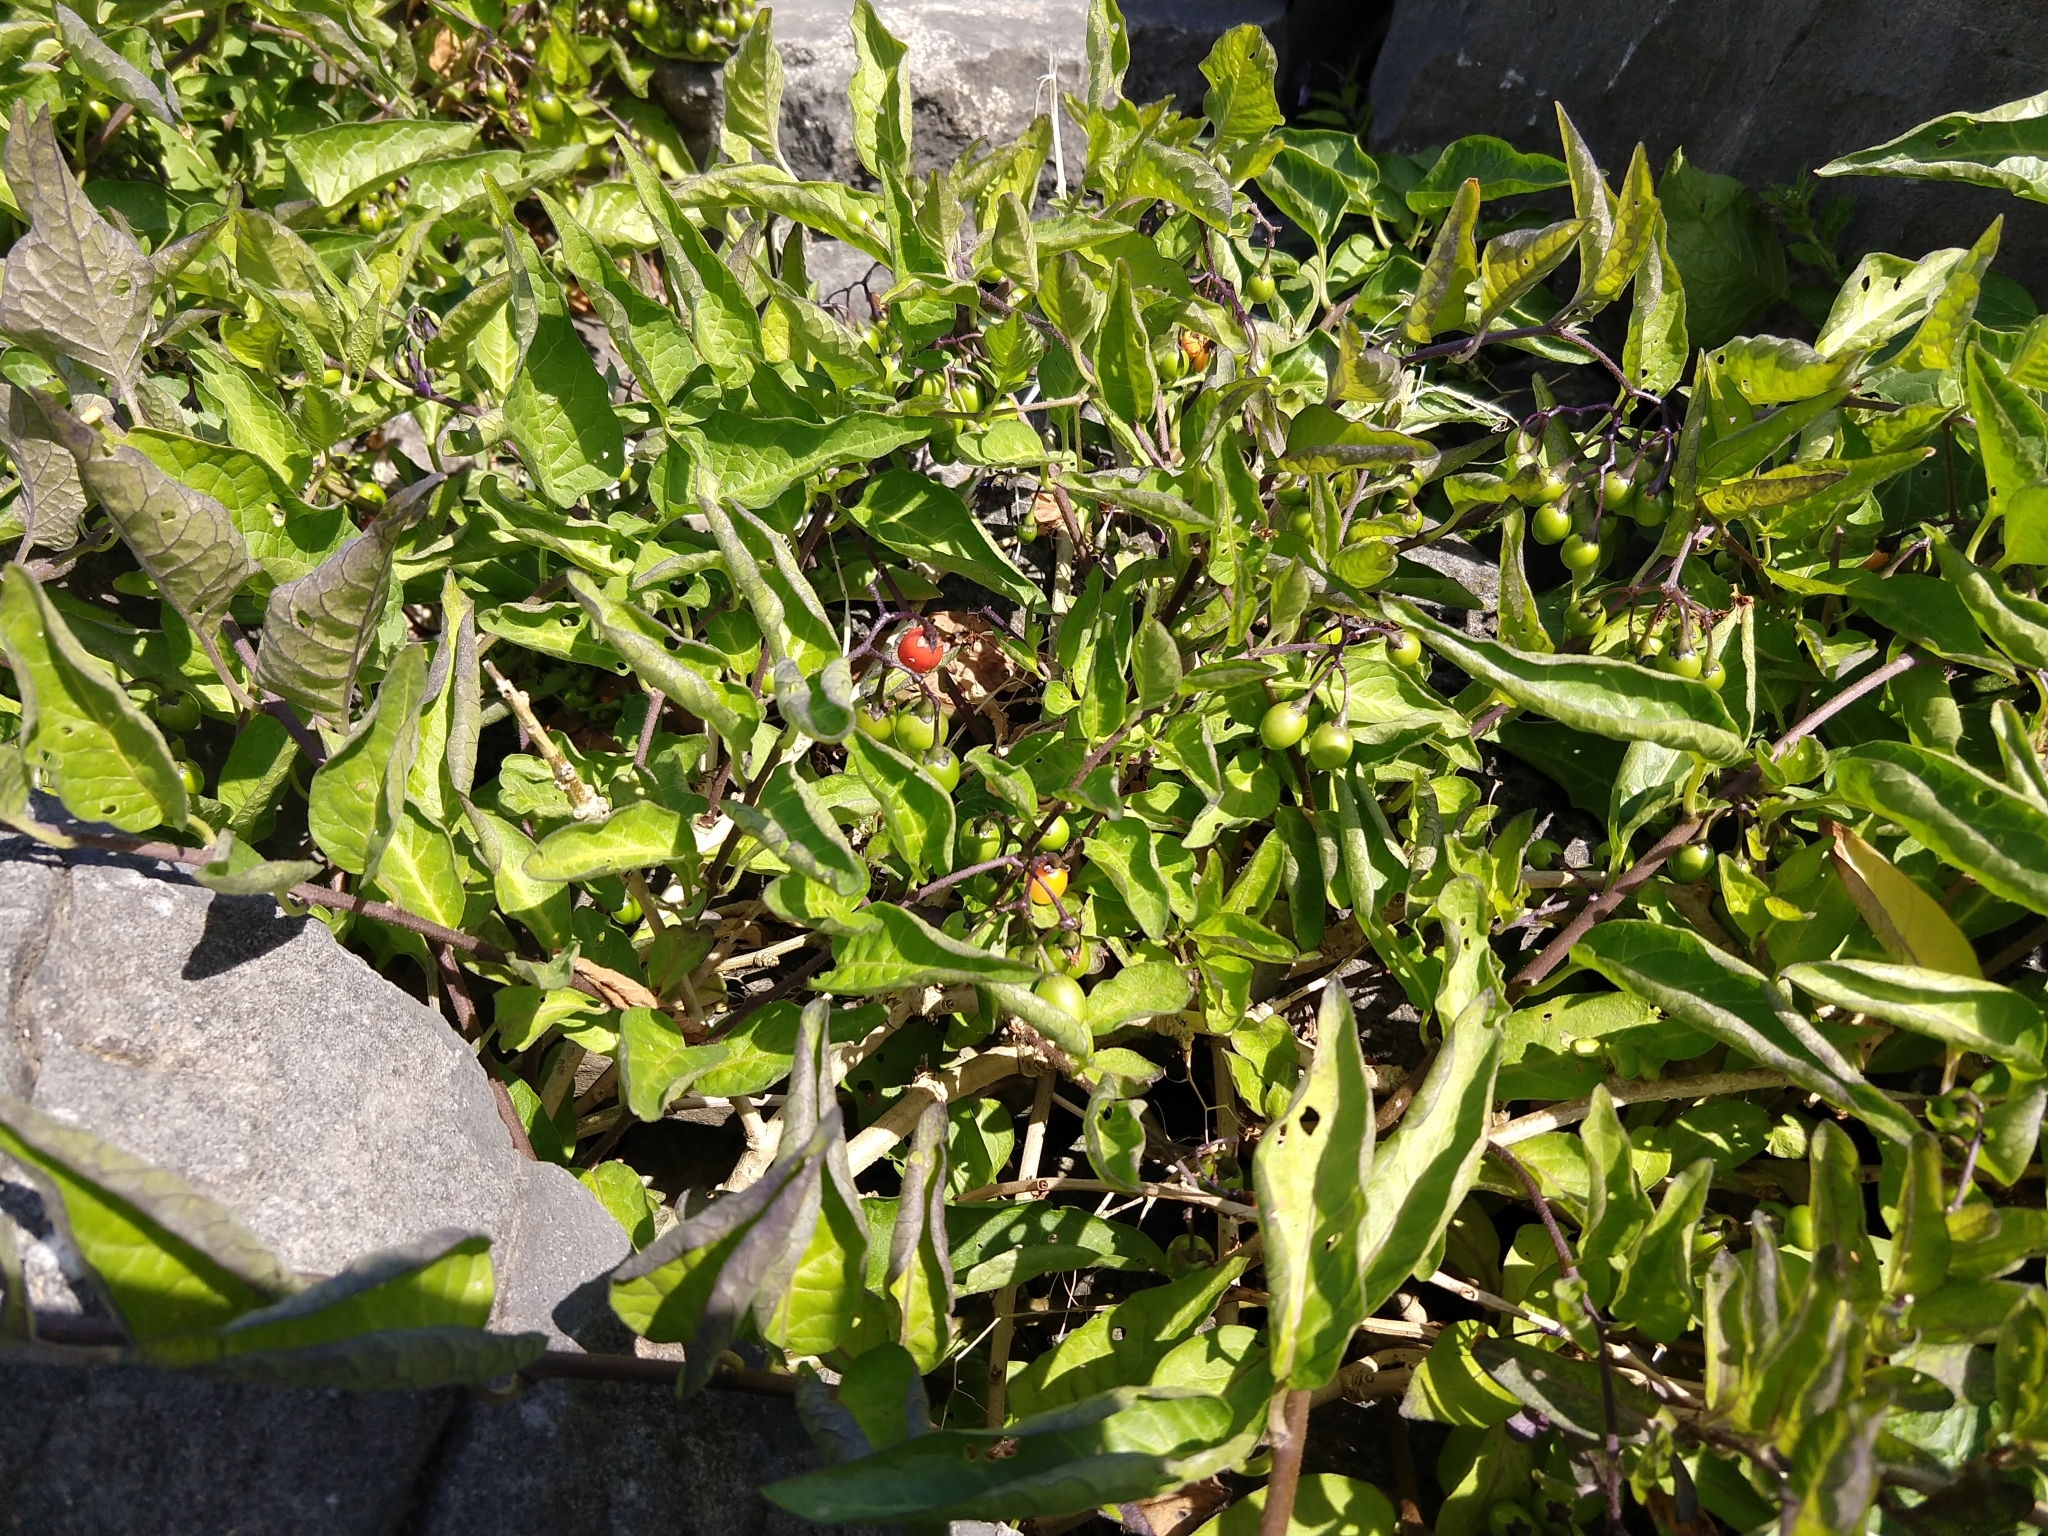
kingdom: Plantae
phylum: Tracheophyta
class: Magnoliopsida
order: Solanales
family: Solanaceae
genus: Solanum
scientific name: Solanum dulcamara
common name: Climbing nightshade
